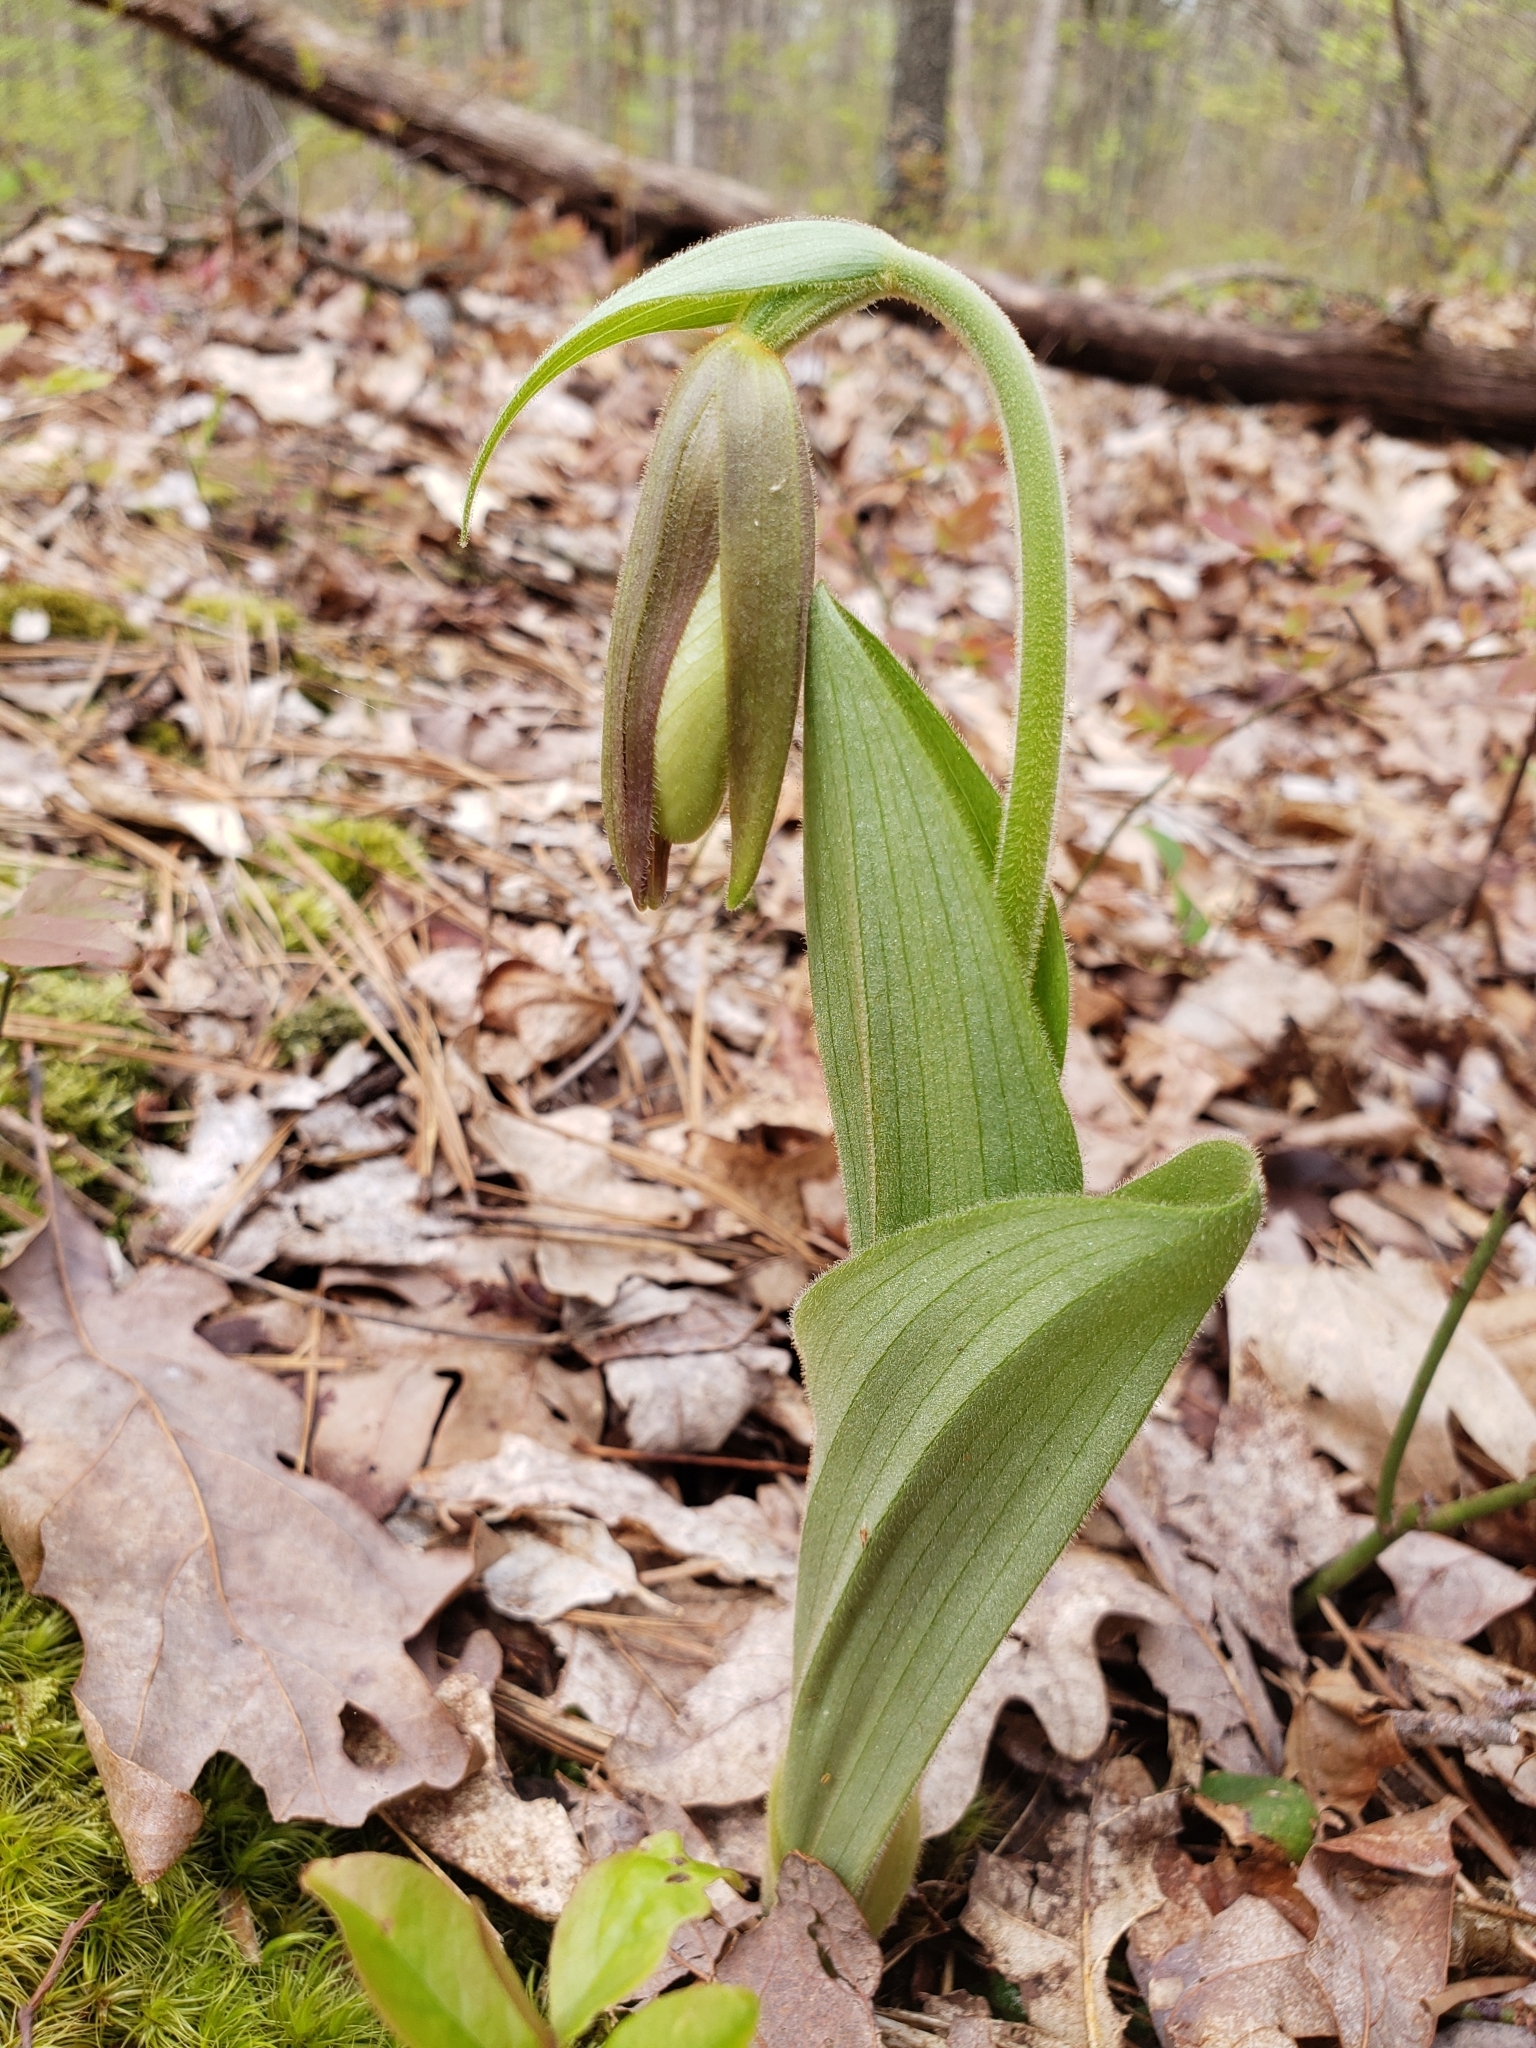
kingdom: Plantae
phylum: Tracheophyta
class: Liliopsida
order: Asparagales
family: Orchidaceae
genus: Cypripedium
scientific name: Cypripedium acaule
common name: Pink lady's-slipper
